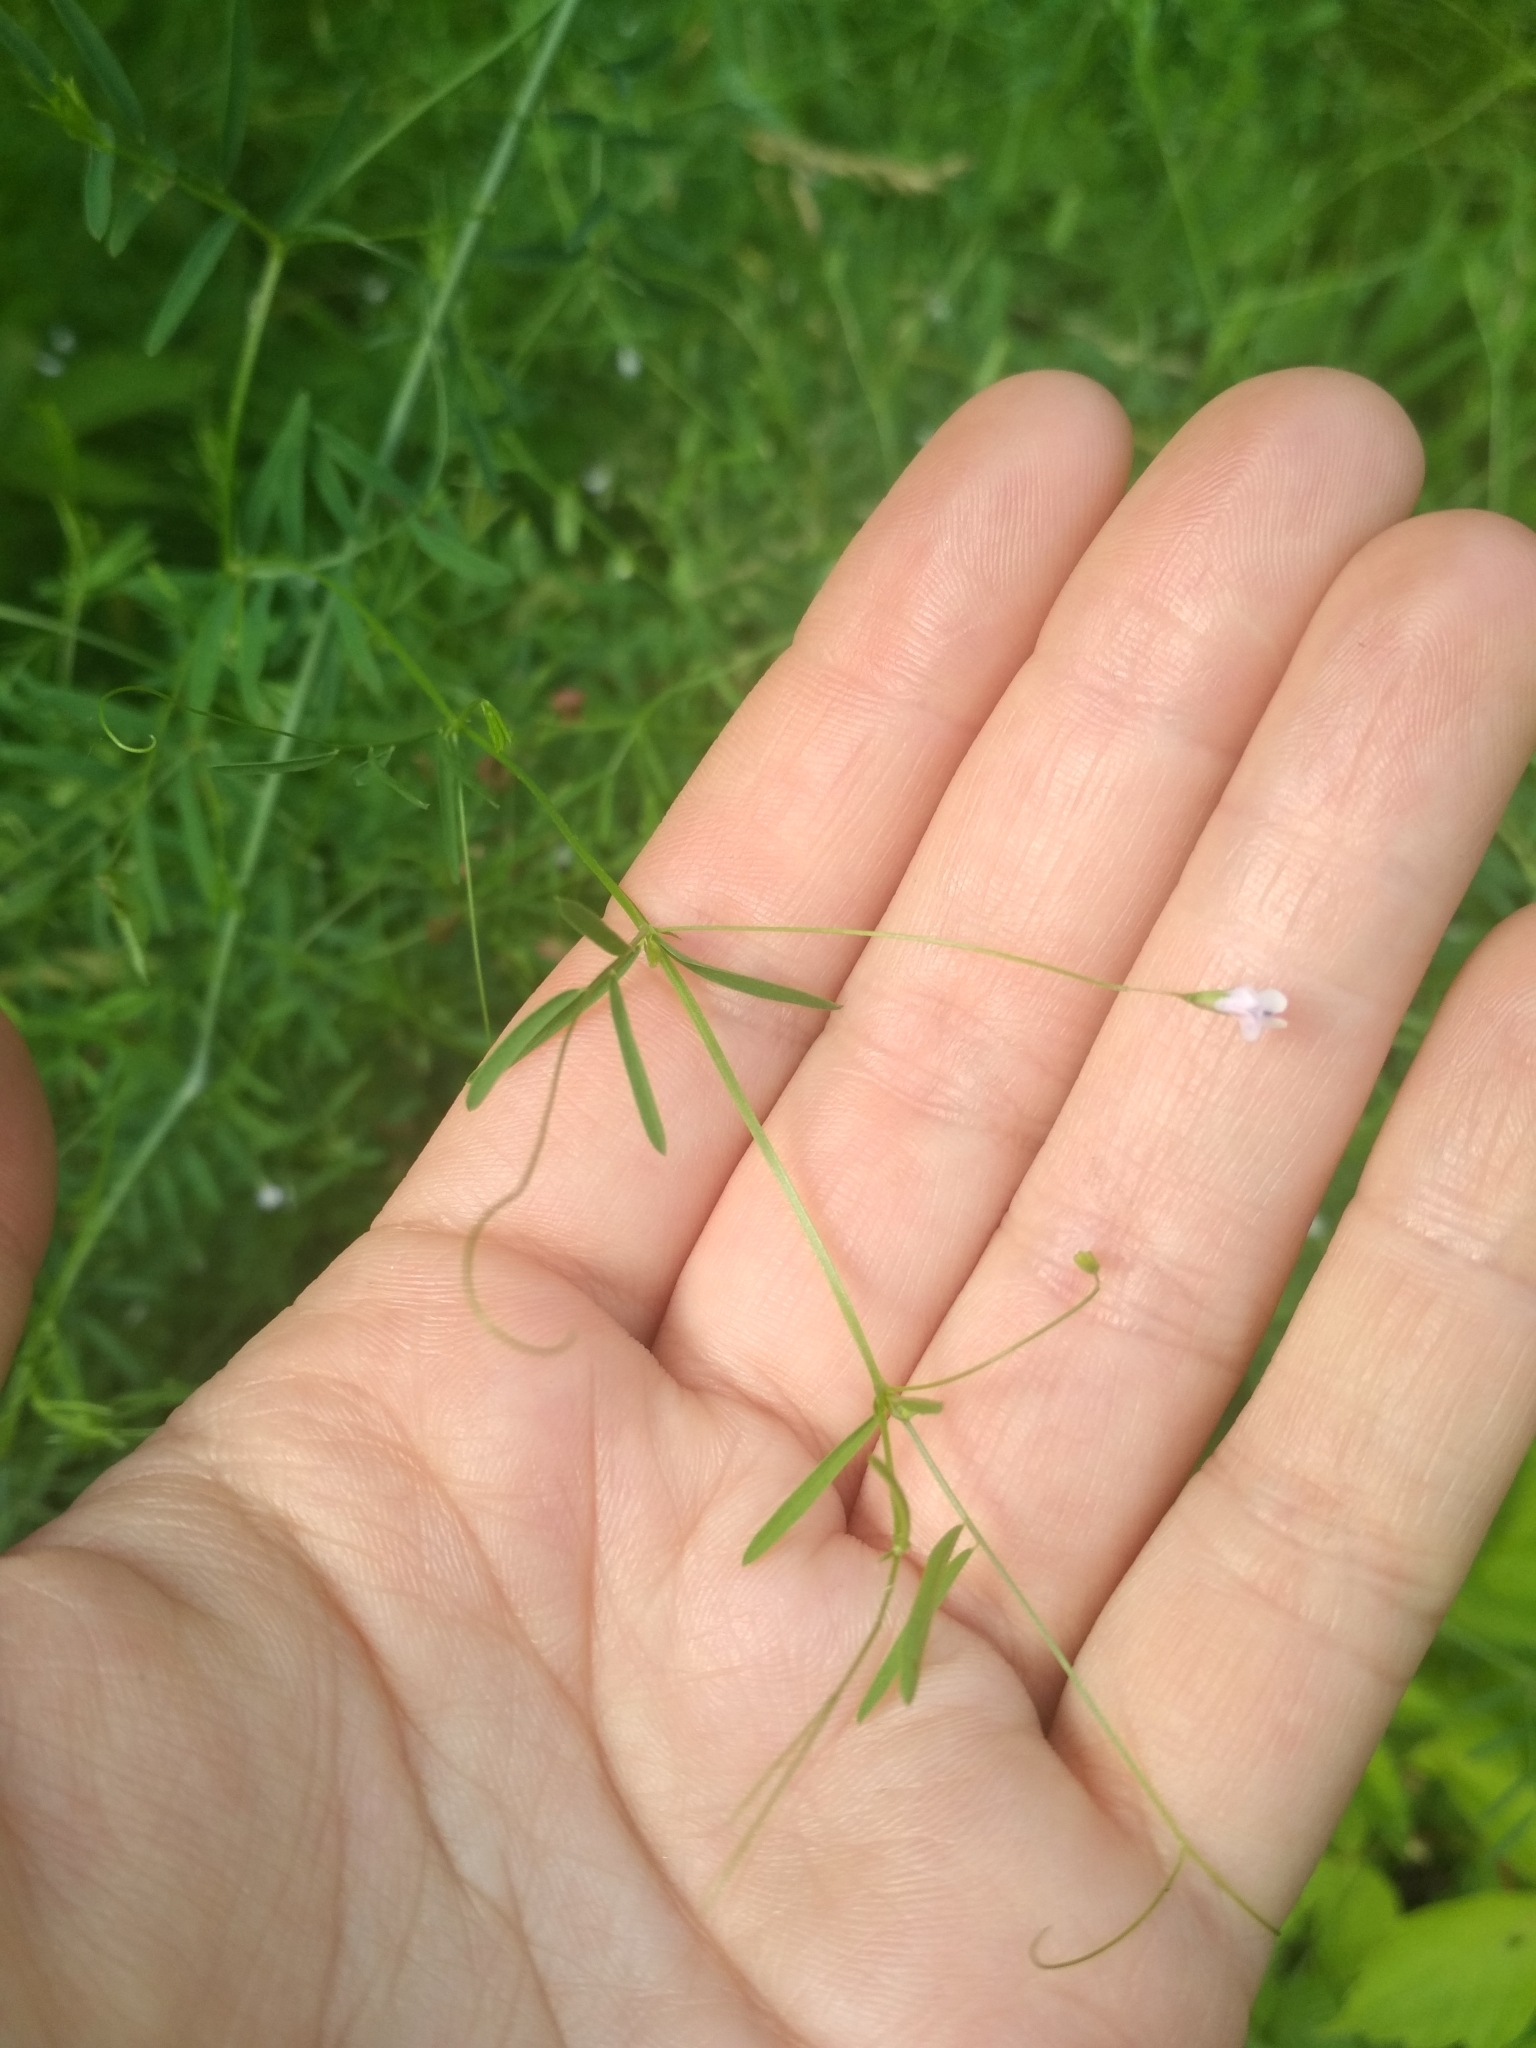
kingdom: Plantae
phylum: Tracheophyta
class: Magnoliopsida
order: Fabales
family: Fabaceae
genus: Vicia
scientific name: Vicia tetrasperma
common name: Smooth tare
